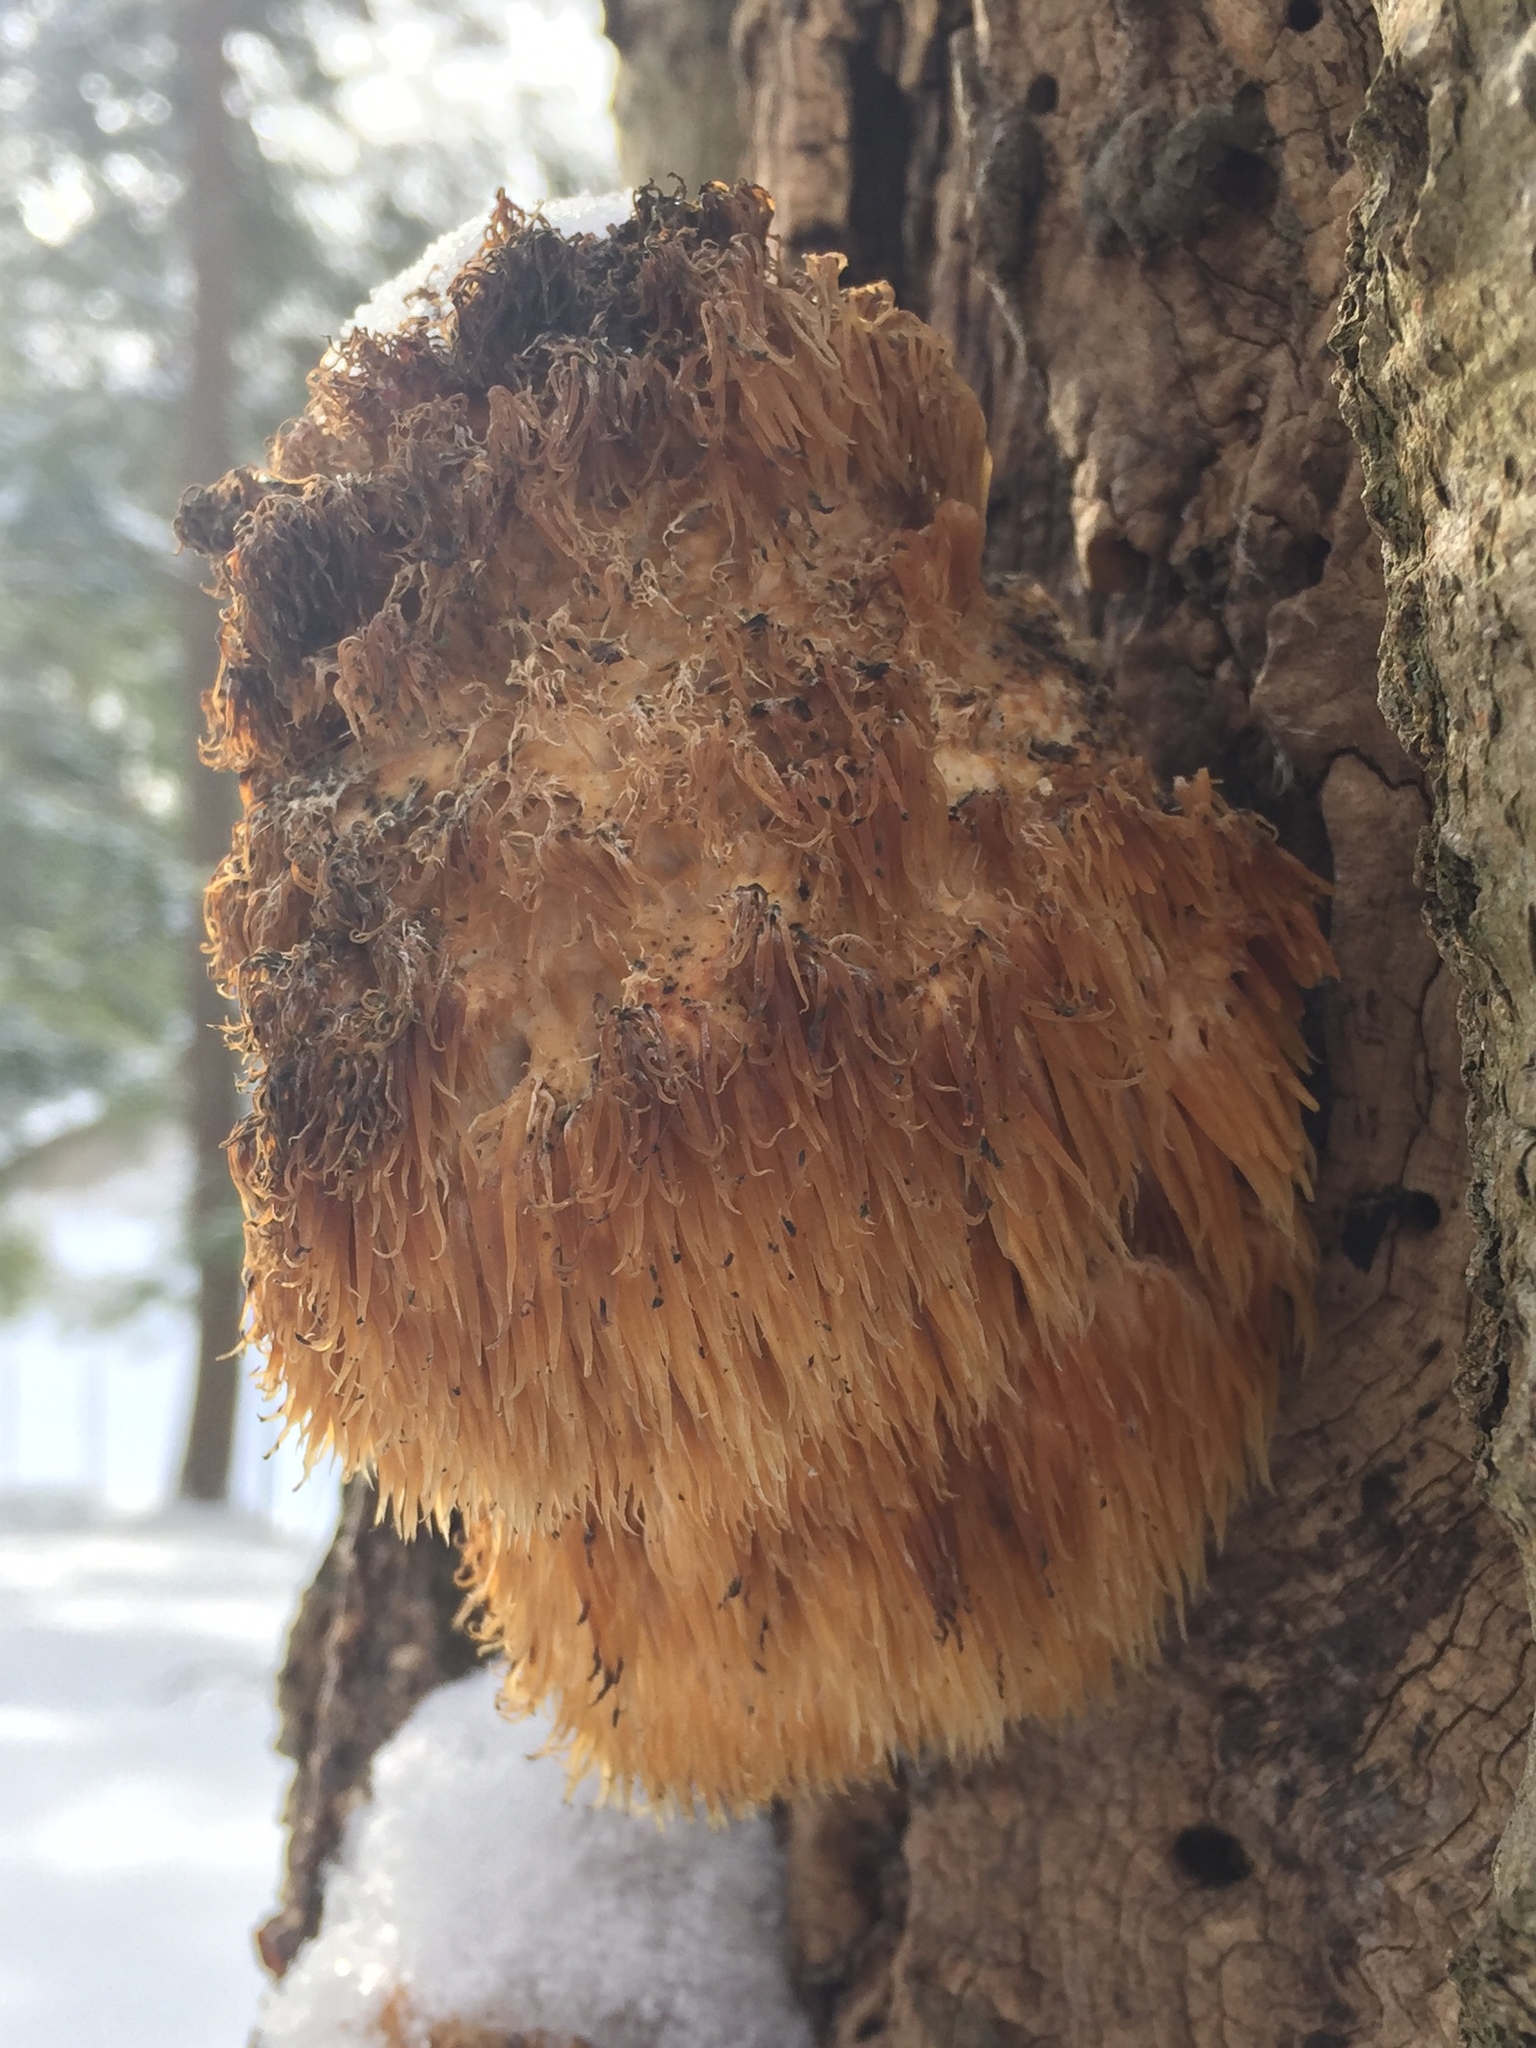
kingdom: Fungi
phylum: Basidiomycota
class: Agaricomycetes
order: Russulales
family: Hericiaceae
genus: Hericium
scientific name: Hericium erinaceus
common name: Bearded tooth
